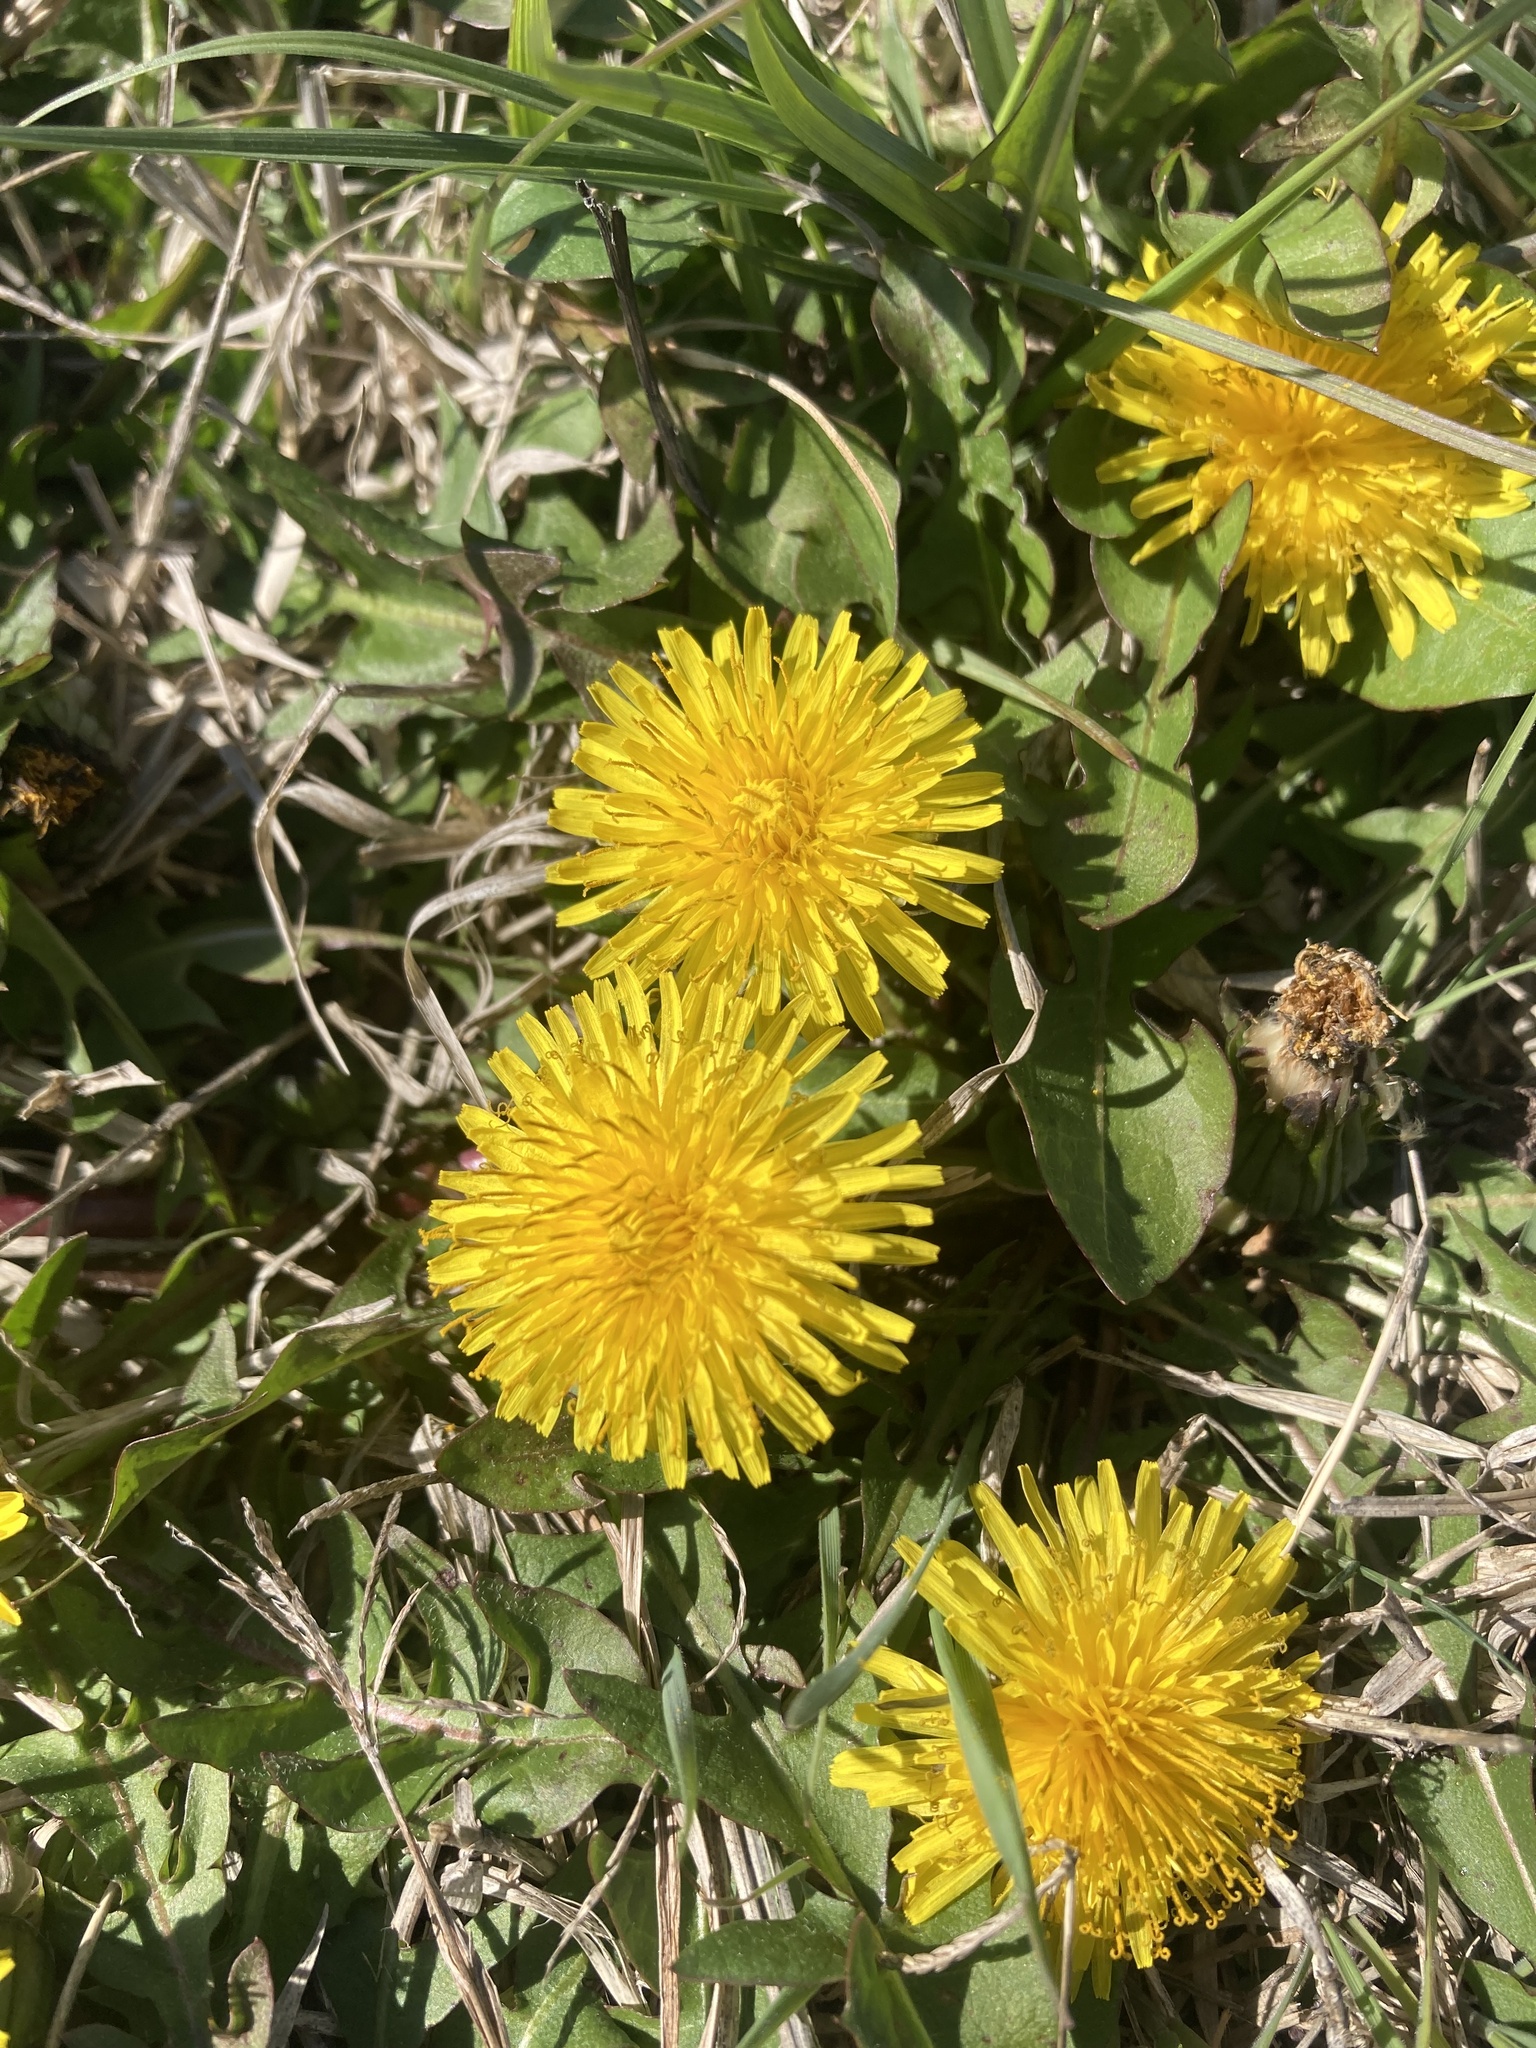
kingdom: Plantae
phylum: Tracheophyta
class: Magnoliopsida
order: Asterales
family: Asteraceae
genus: Taraxacum
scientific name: Taraxacum officinale
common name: Common dandelion
